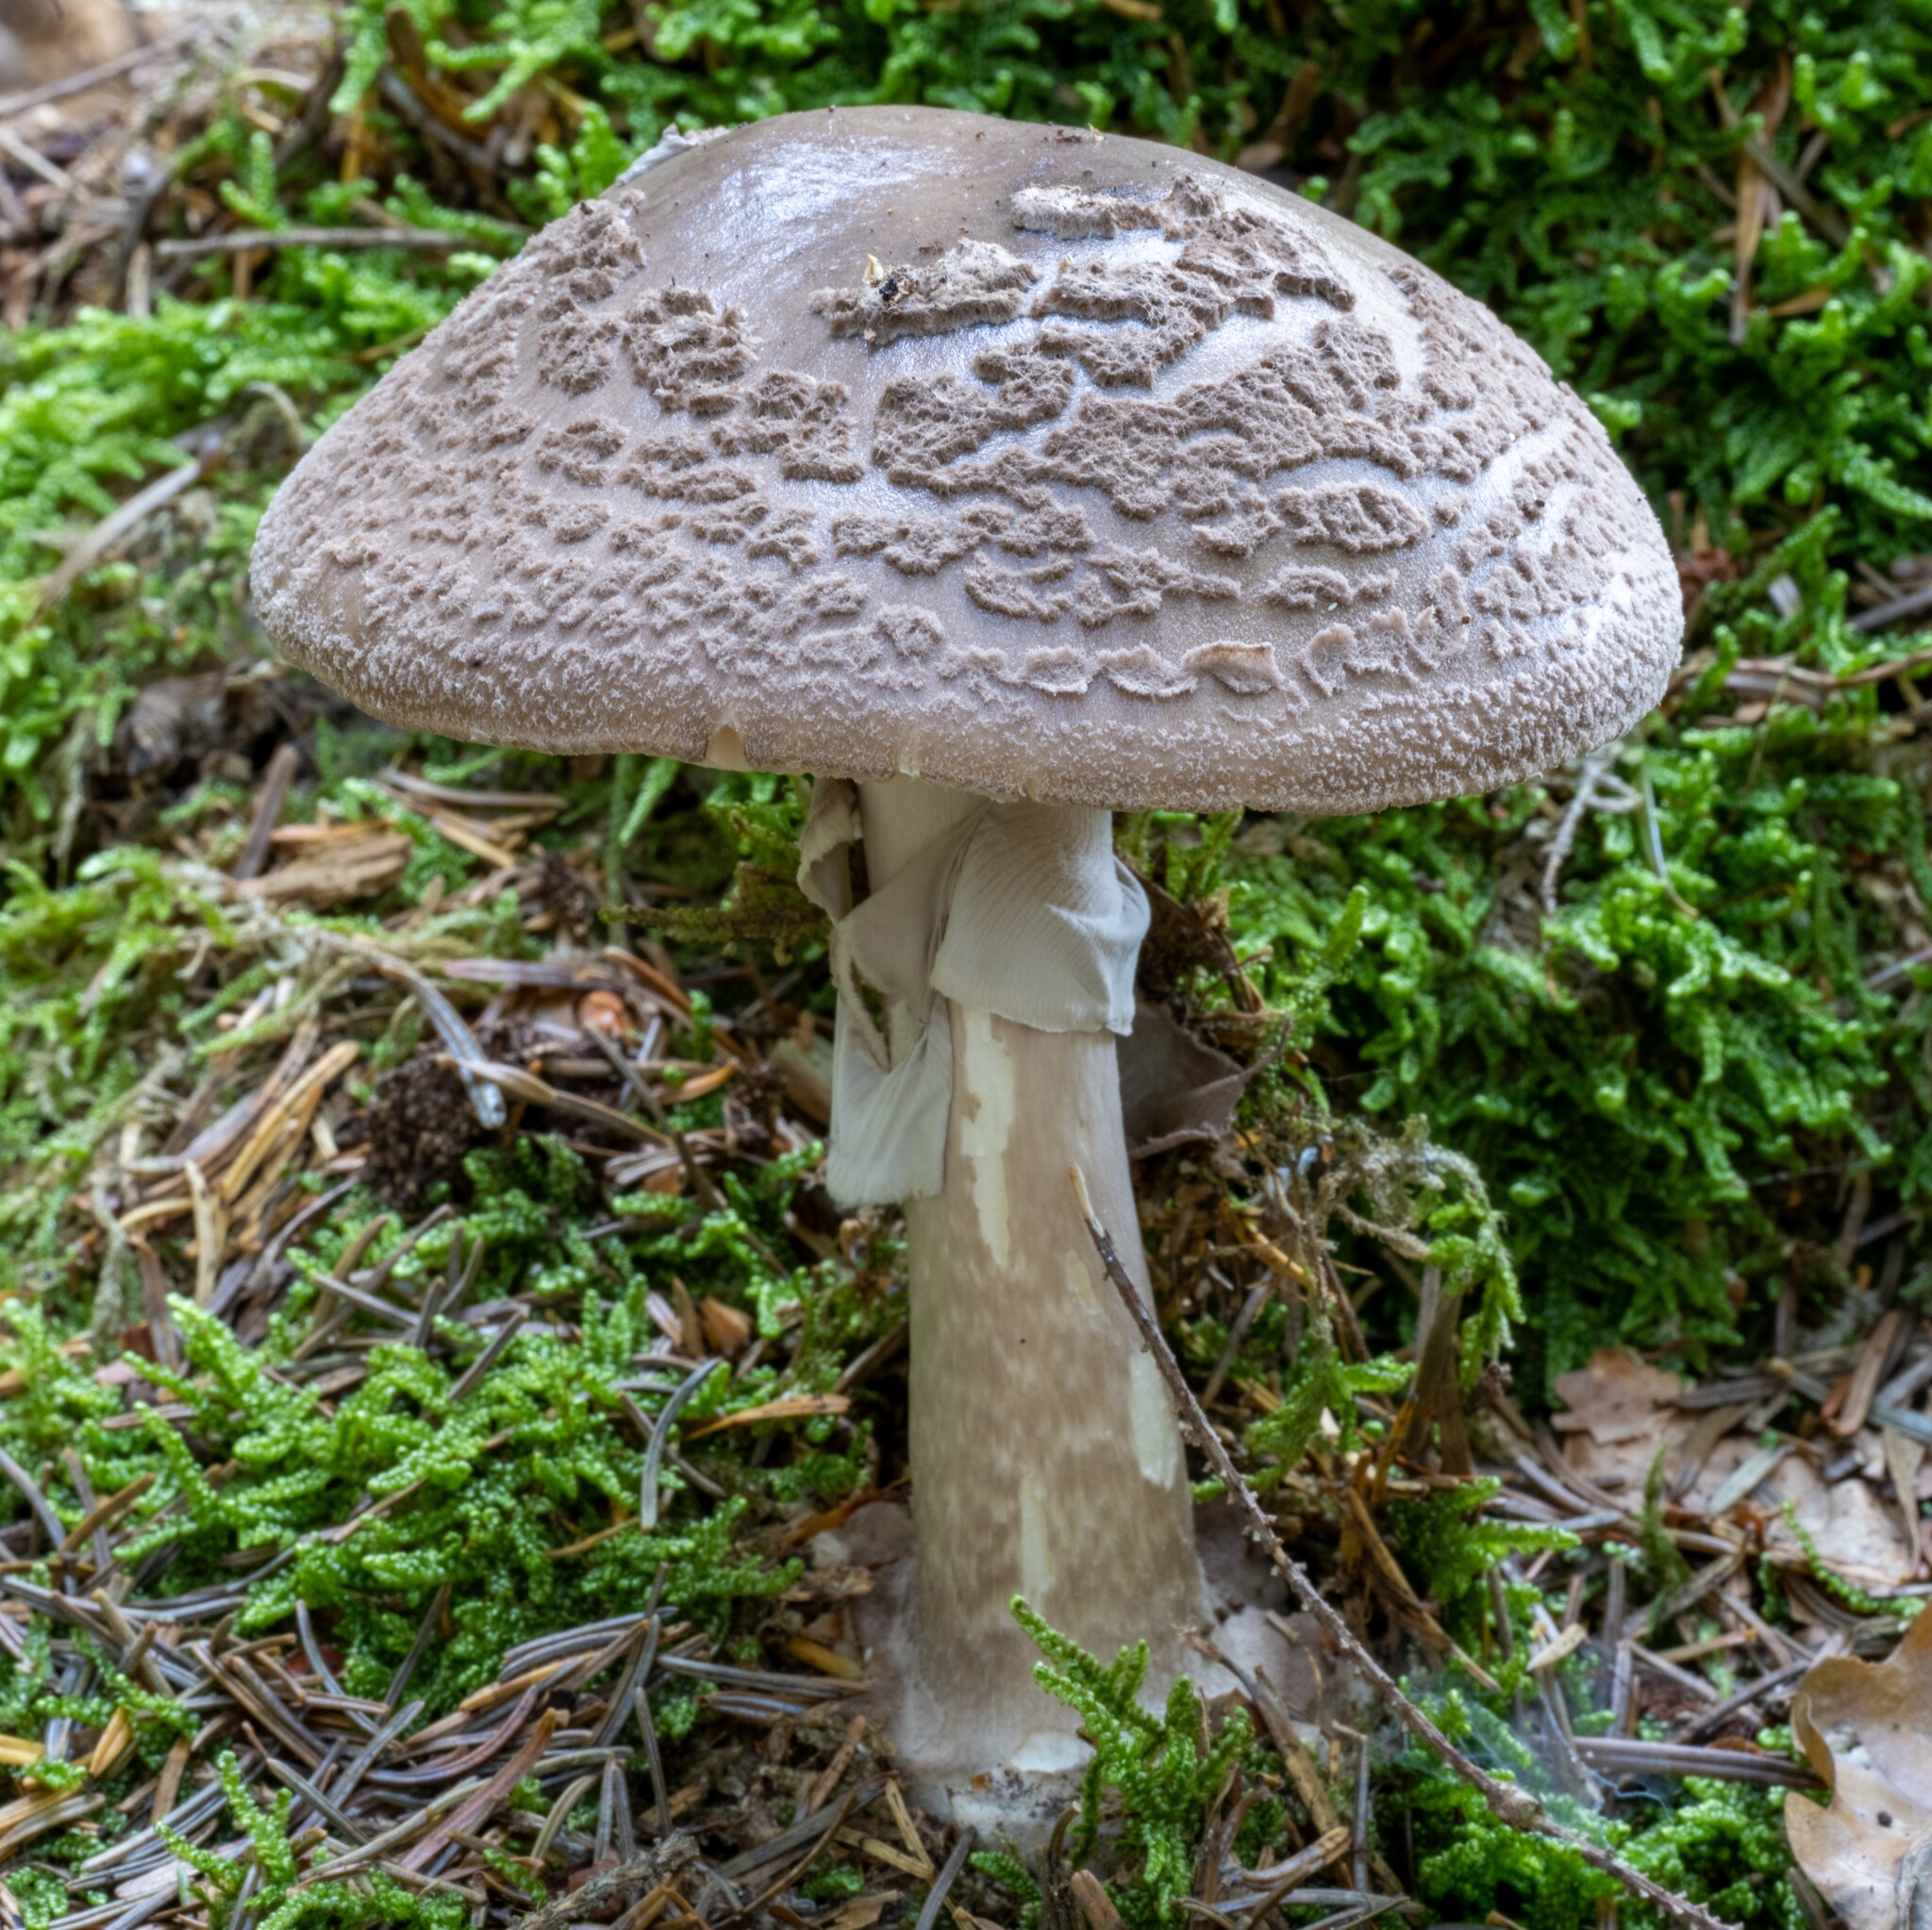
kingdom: Fungi
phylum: Basidiomycota
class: Agaricomycetes
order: Agaricales
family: Amanitaceae
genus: Amanita
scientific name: Amanita porphyria
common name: Grey veiled amanita
